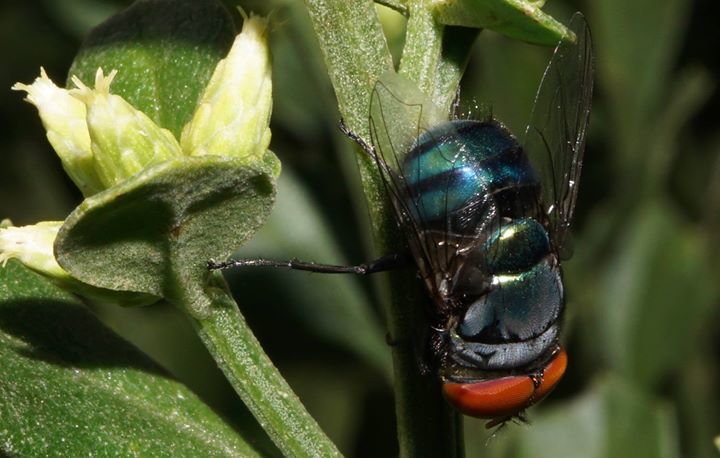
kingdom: Animalia
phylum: Arthropoda
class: Insecta
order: Diptera
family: Calliphoridae
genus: Chrysomya
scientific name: Chrysomya megacephala
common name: Blow fly
